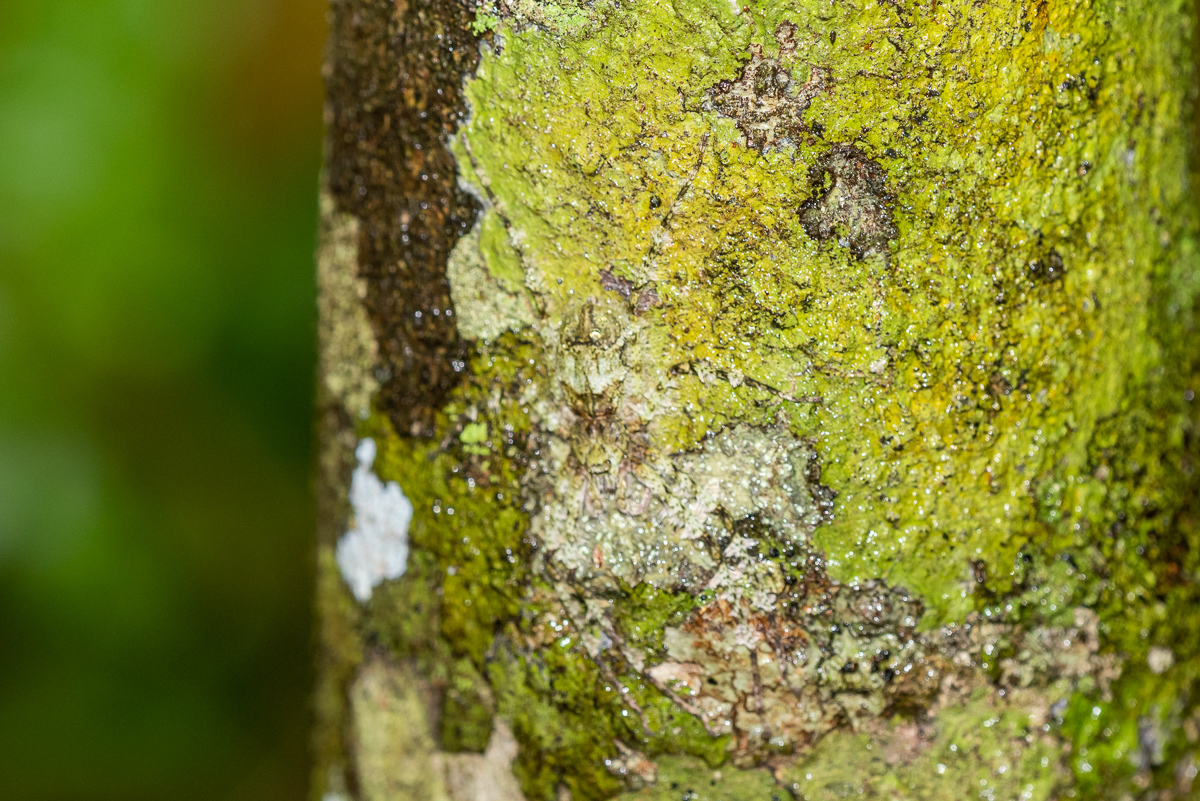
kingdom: Animalia
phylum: Arthropoda
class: Arachnida
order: Araneae
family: Sparassidae
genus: Pandercetes
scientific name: Pandercetes gracilis
